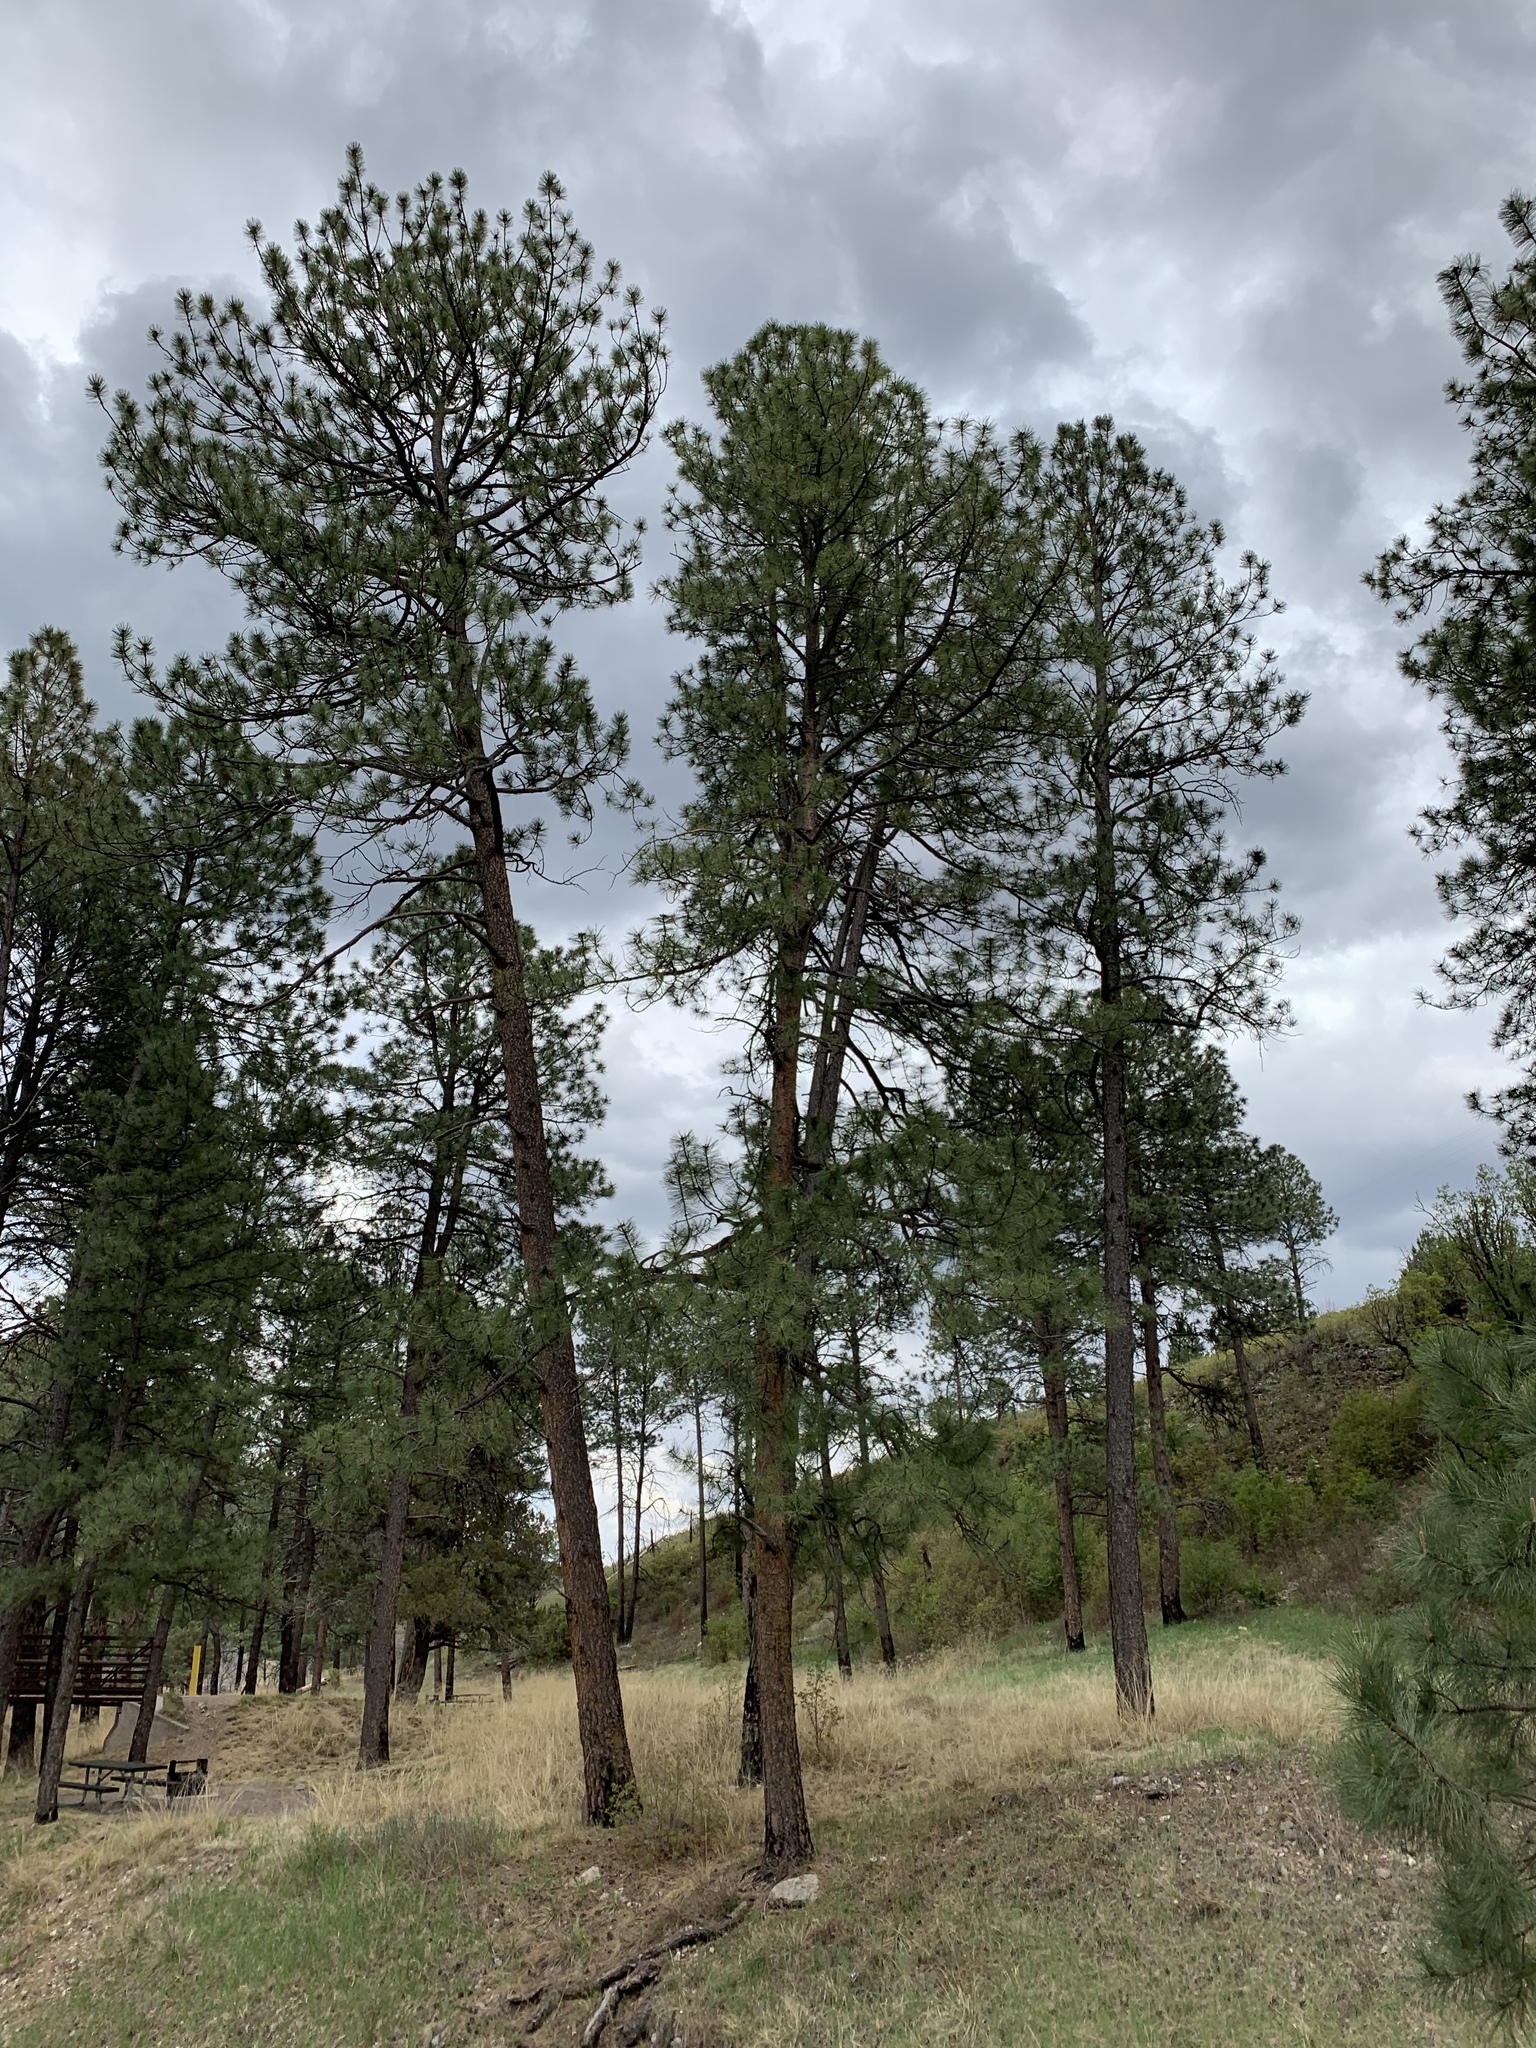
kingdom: Plantae
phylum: Tracheophyta
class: Pinopsida
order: Pinales
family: Pinaceae
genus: Pinus
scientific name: Pinus ponderosa
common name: Western yellow-pine
